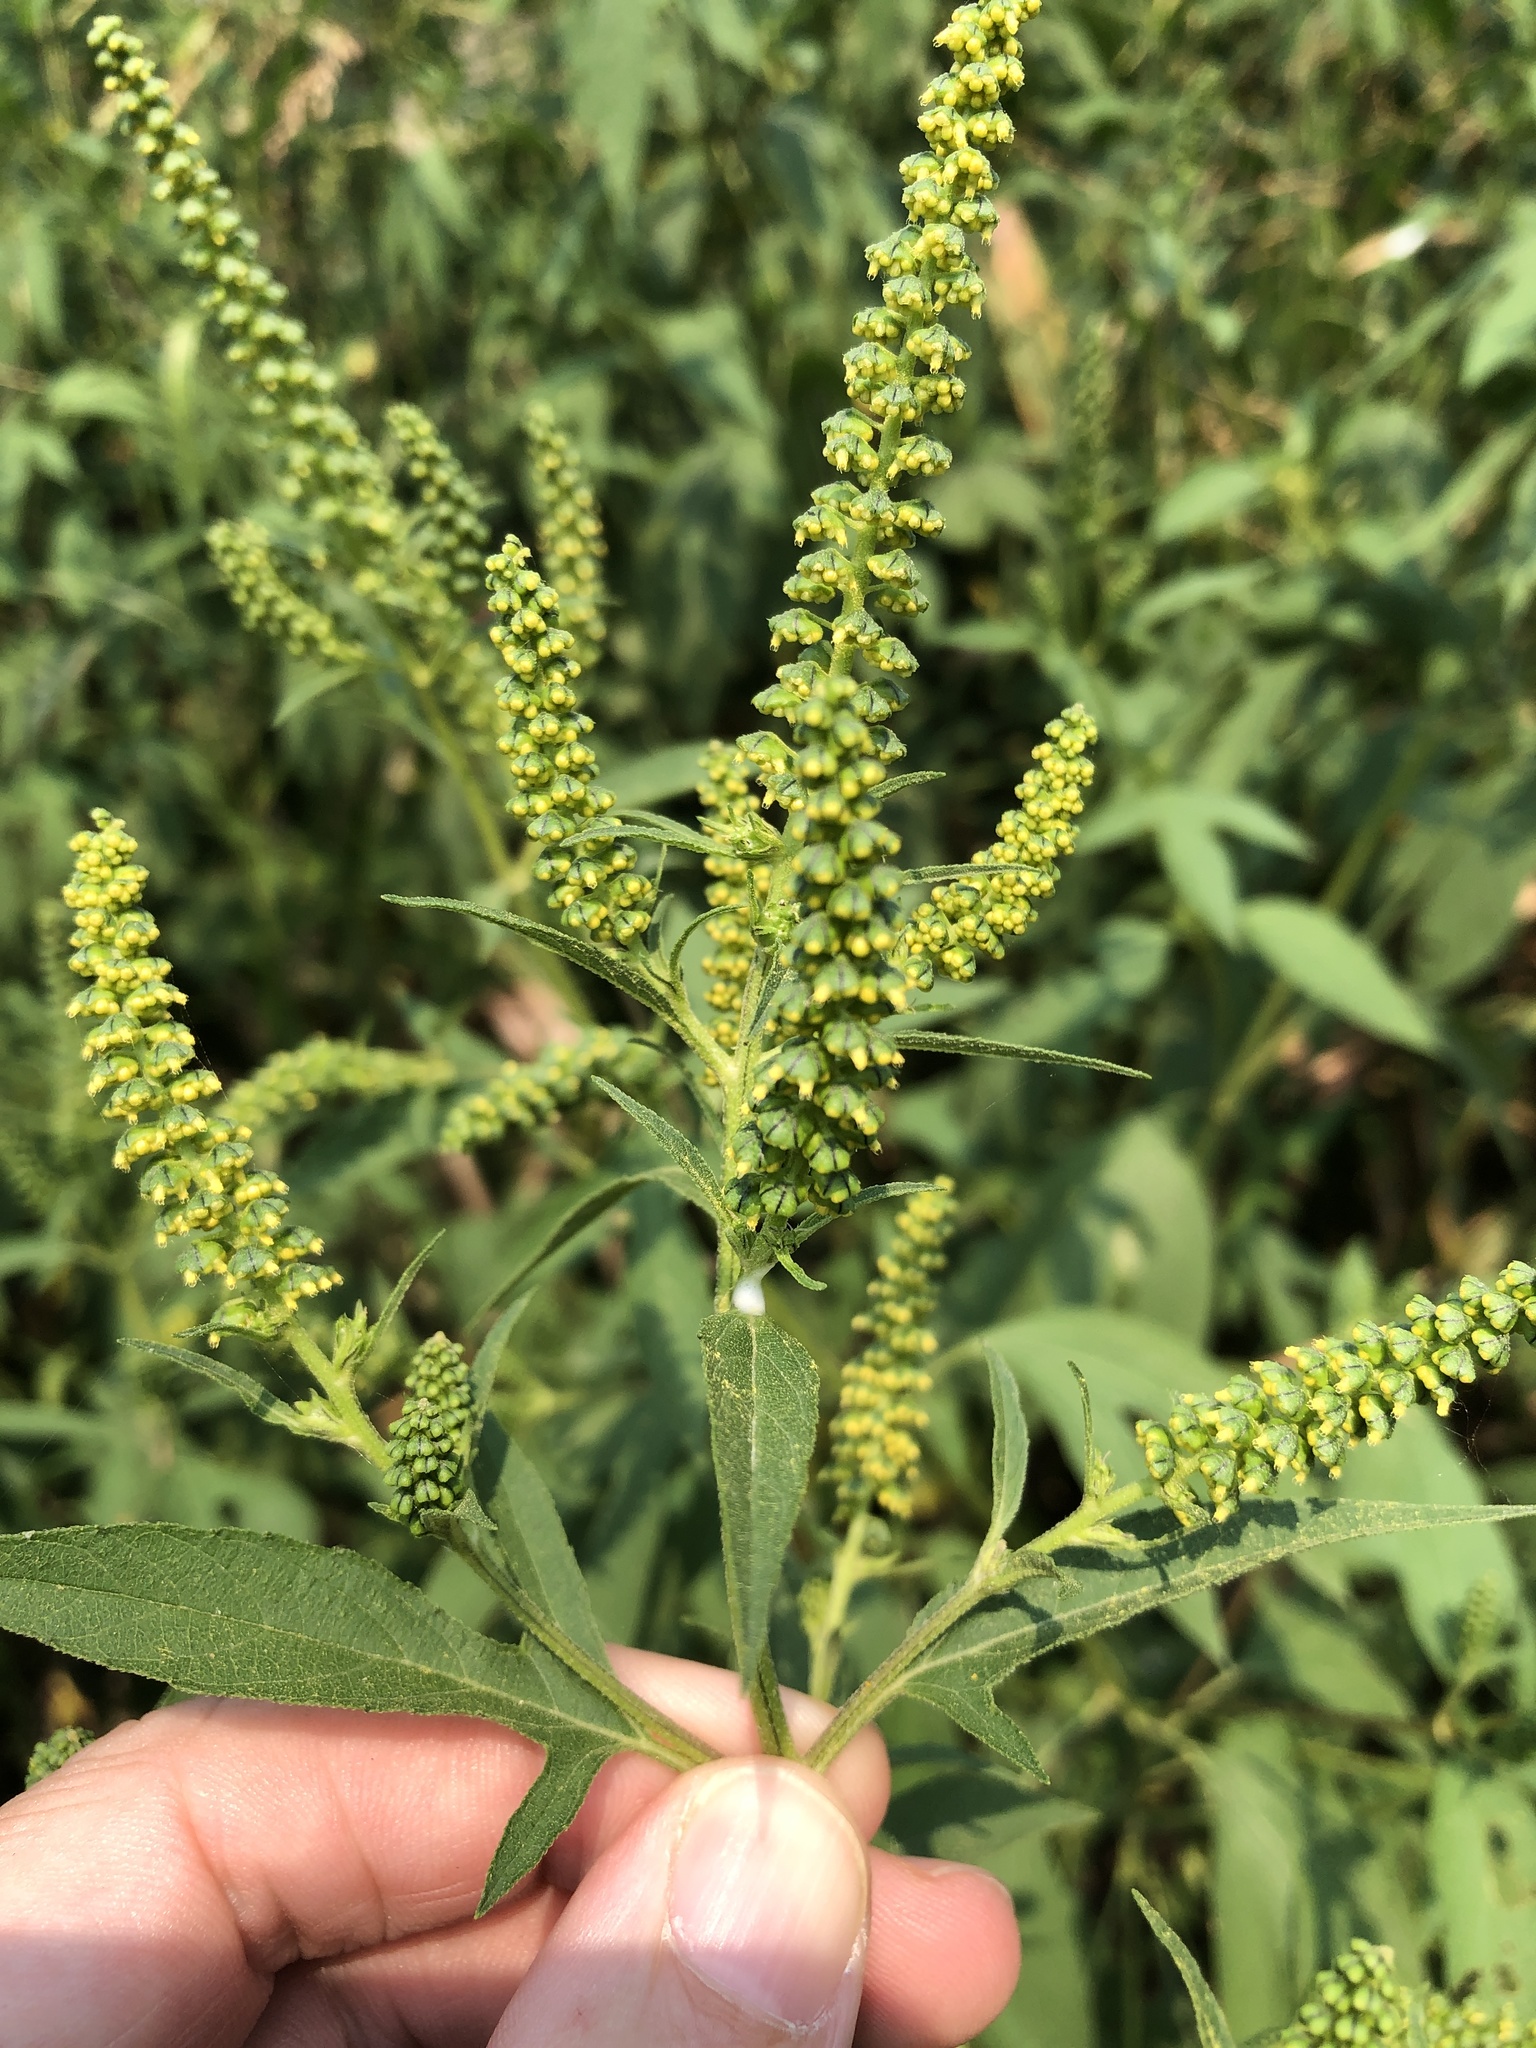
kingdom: Plantae
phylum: Tracheophyta
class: Magnoliopsida
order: Asterales
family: Asteraceae
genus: Ambrosia
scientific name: Ambrosia trifida
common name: Giant ragweed
